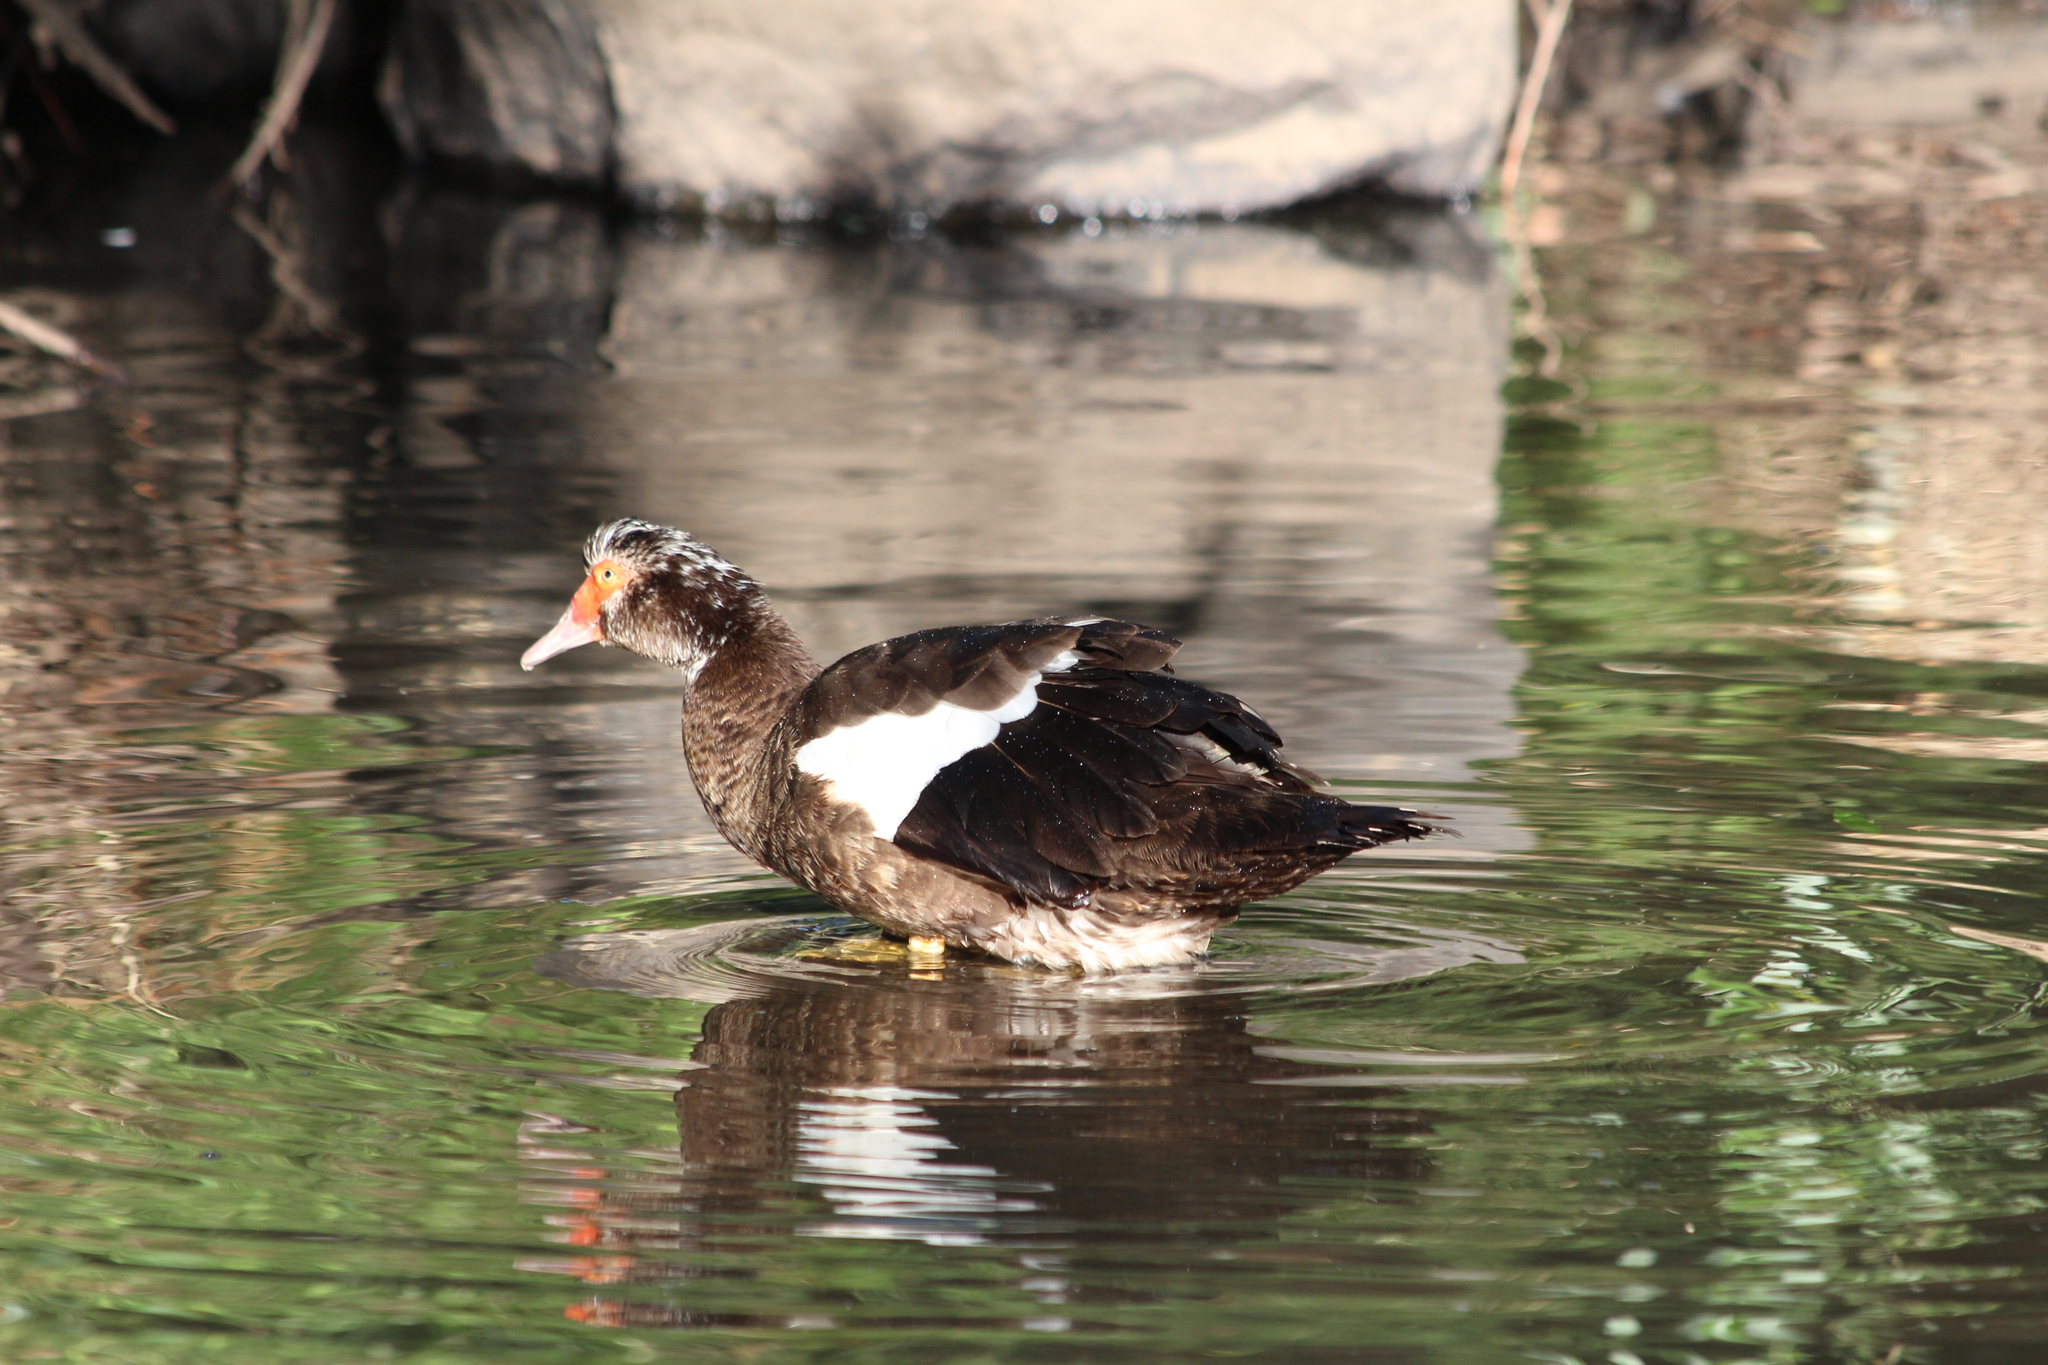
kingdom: Animalia
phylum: Chordata
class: Aves
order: Anseriformes
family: Anatidae
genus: Cairina
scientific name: Cairina moschata
